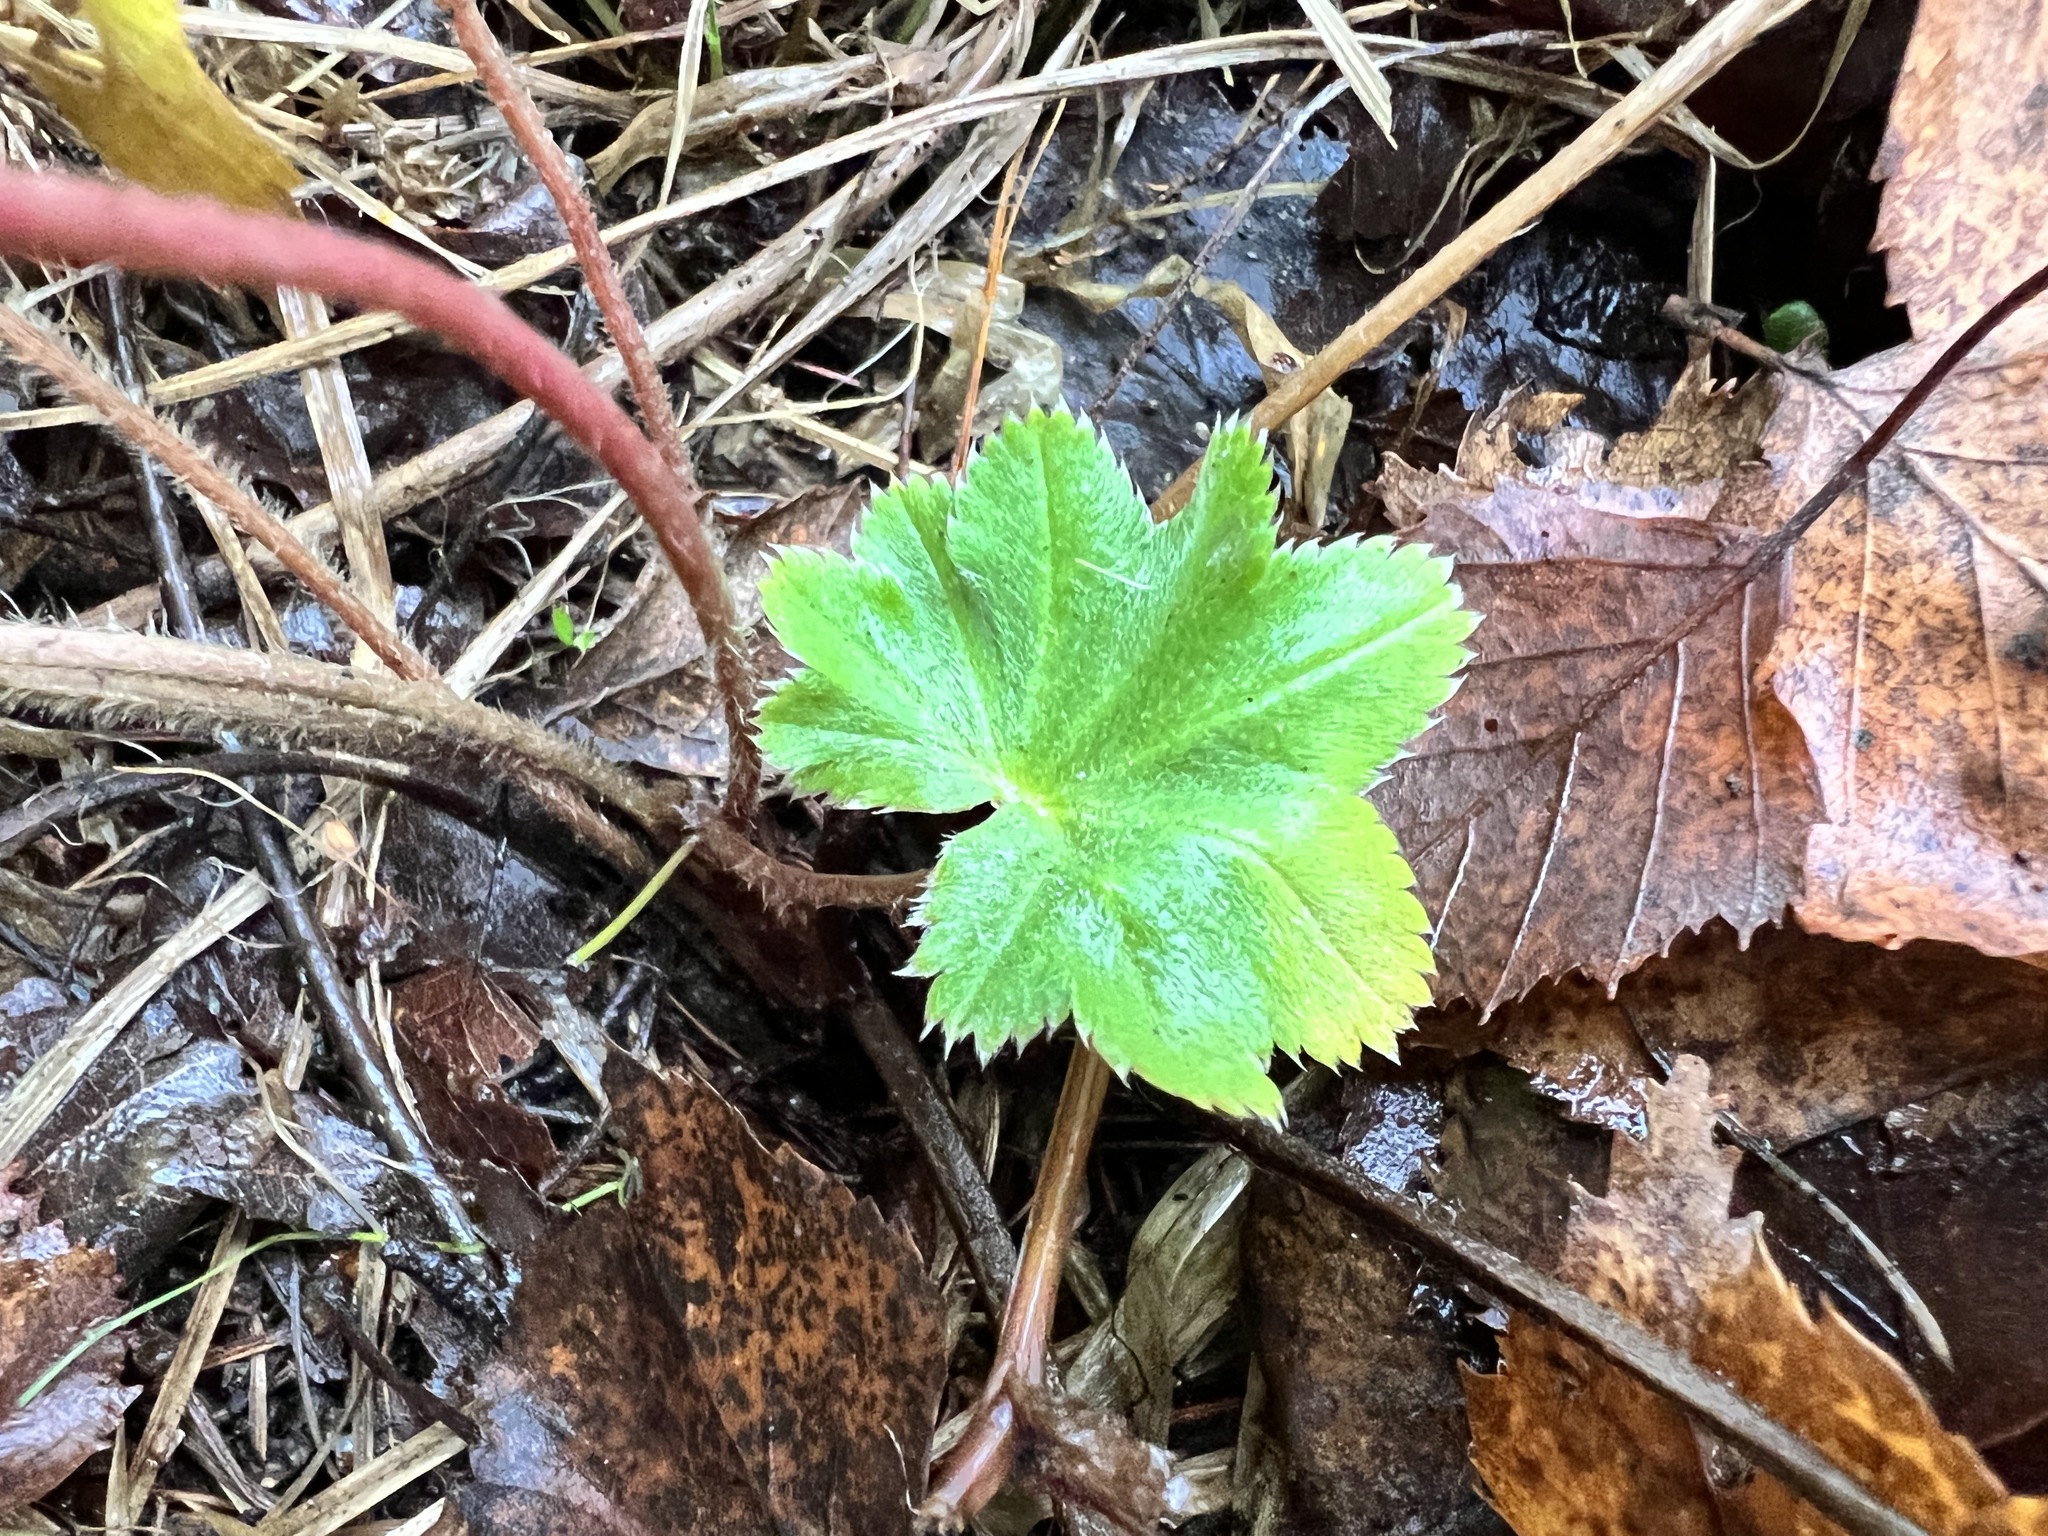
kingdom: Plantae
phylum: Tracheophyta
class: Magnoliopsida
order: Rosales
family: Rosaceae
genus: Alchemilla
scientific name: Alchemilla micans
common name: Gleaming lady's mantle
